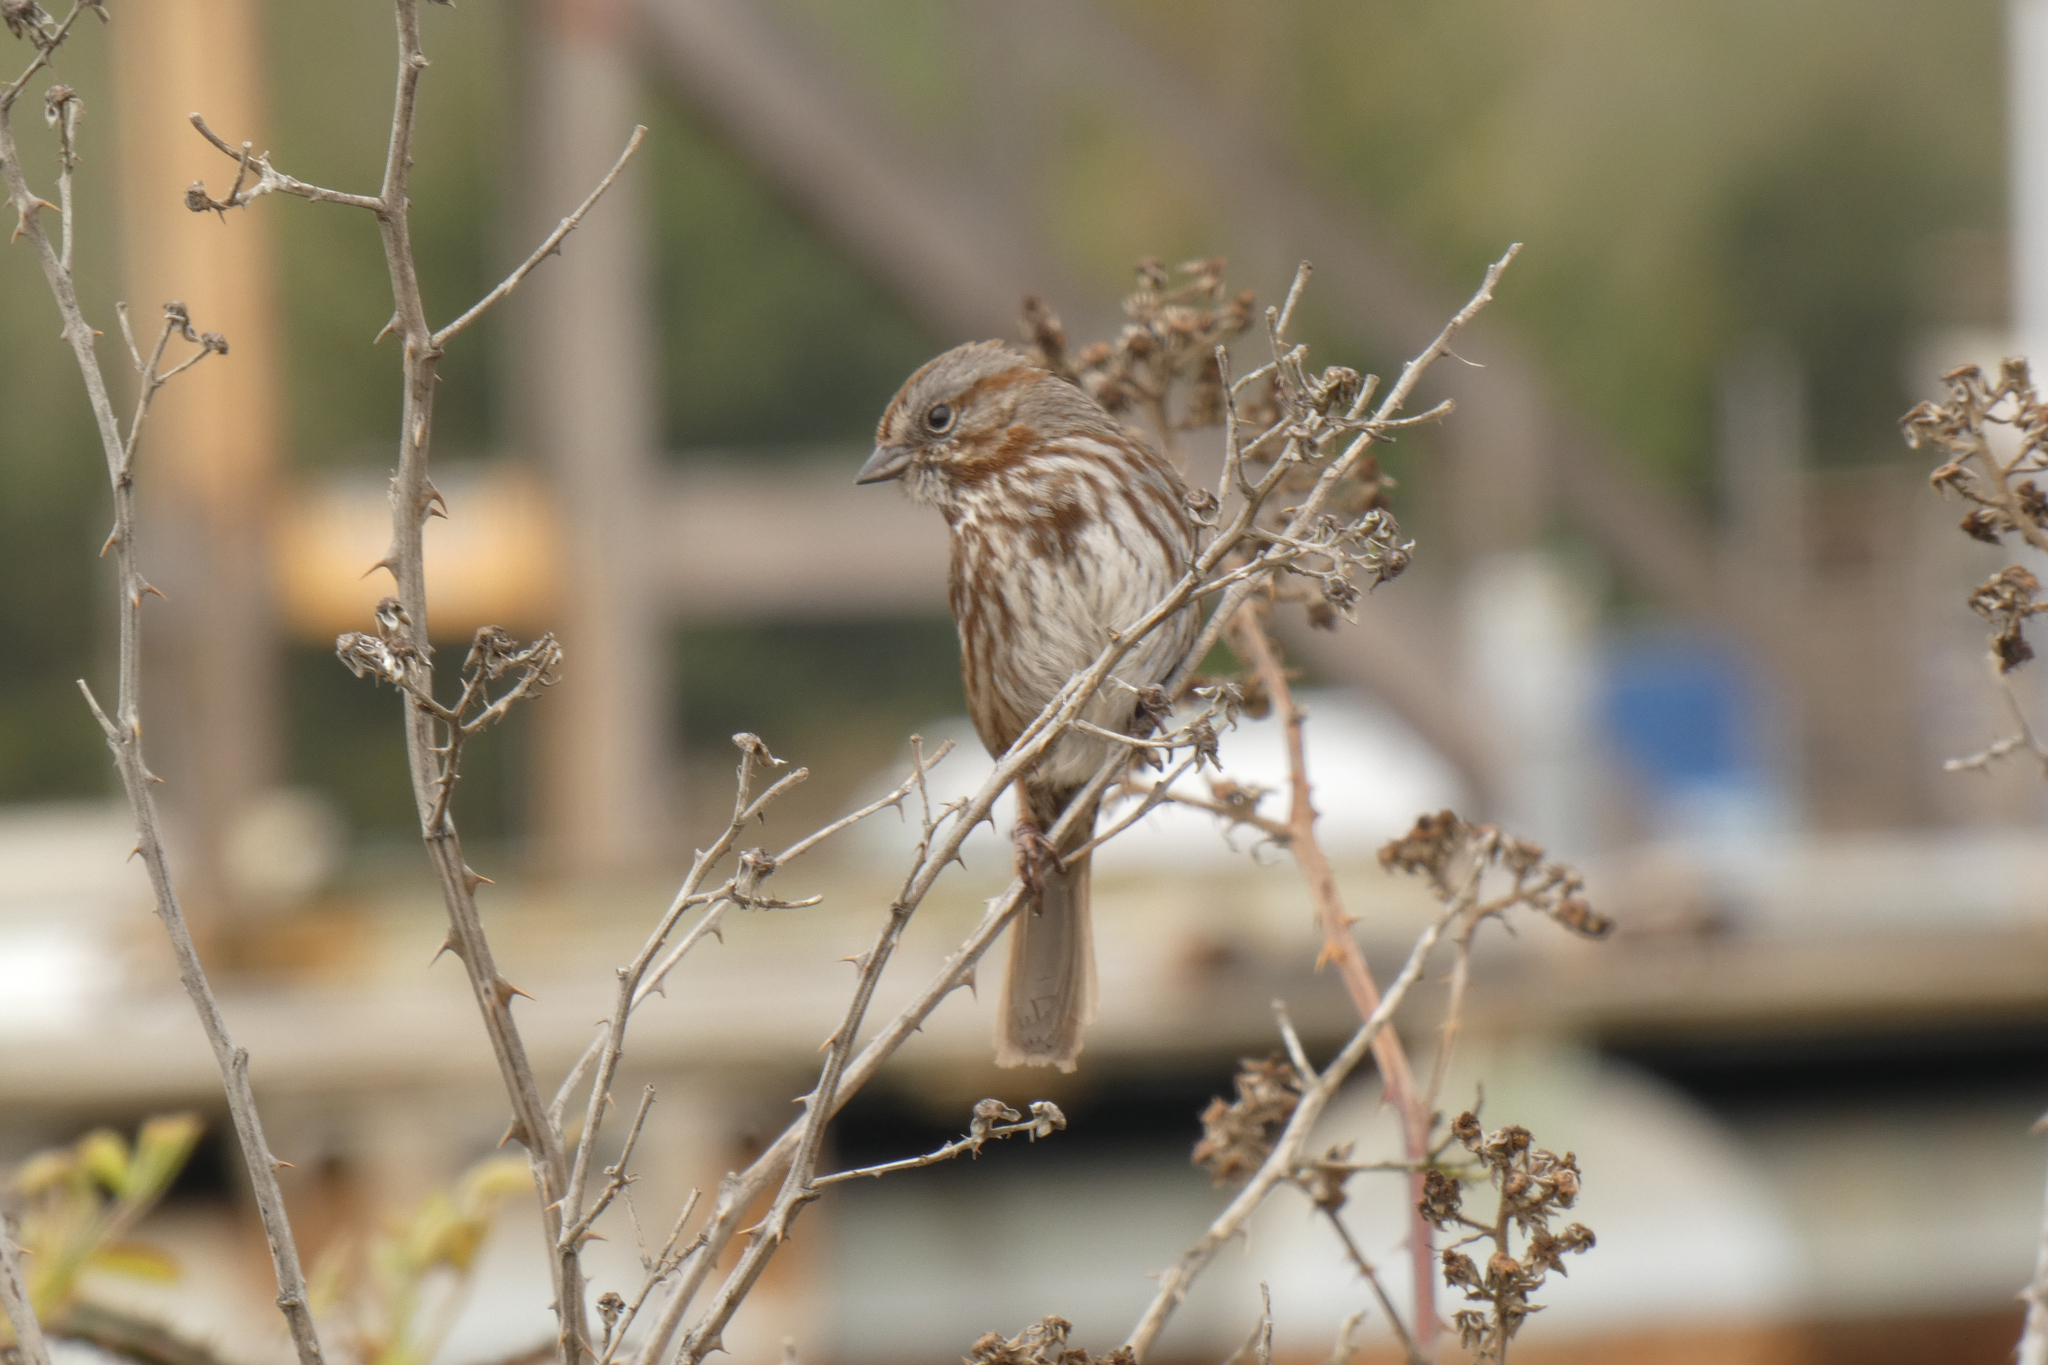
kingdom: Animalia
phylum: Chordata
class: Aves
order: Passeriformes
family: Passerellidae
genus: Melospiza
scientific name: Melospiza melodia
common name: Song sparrow
